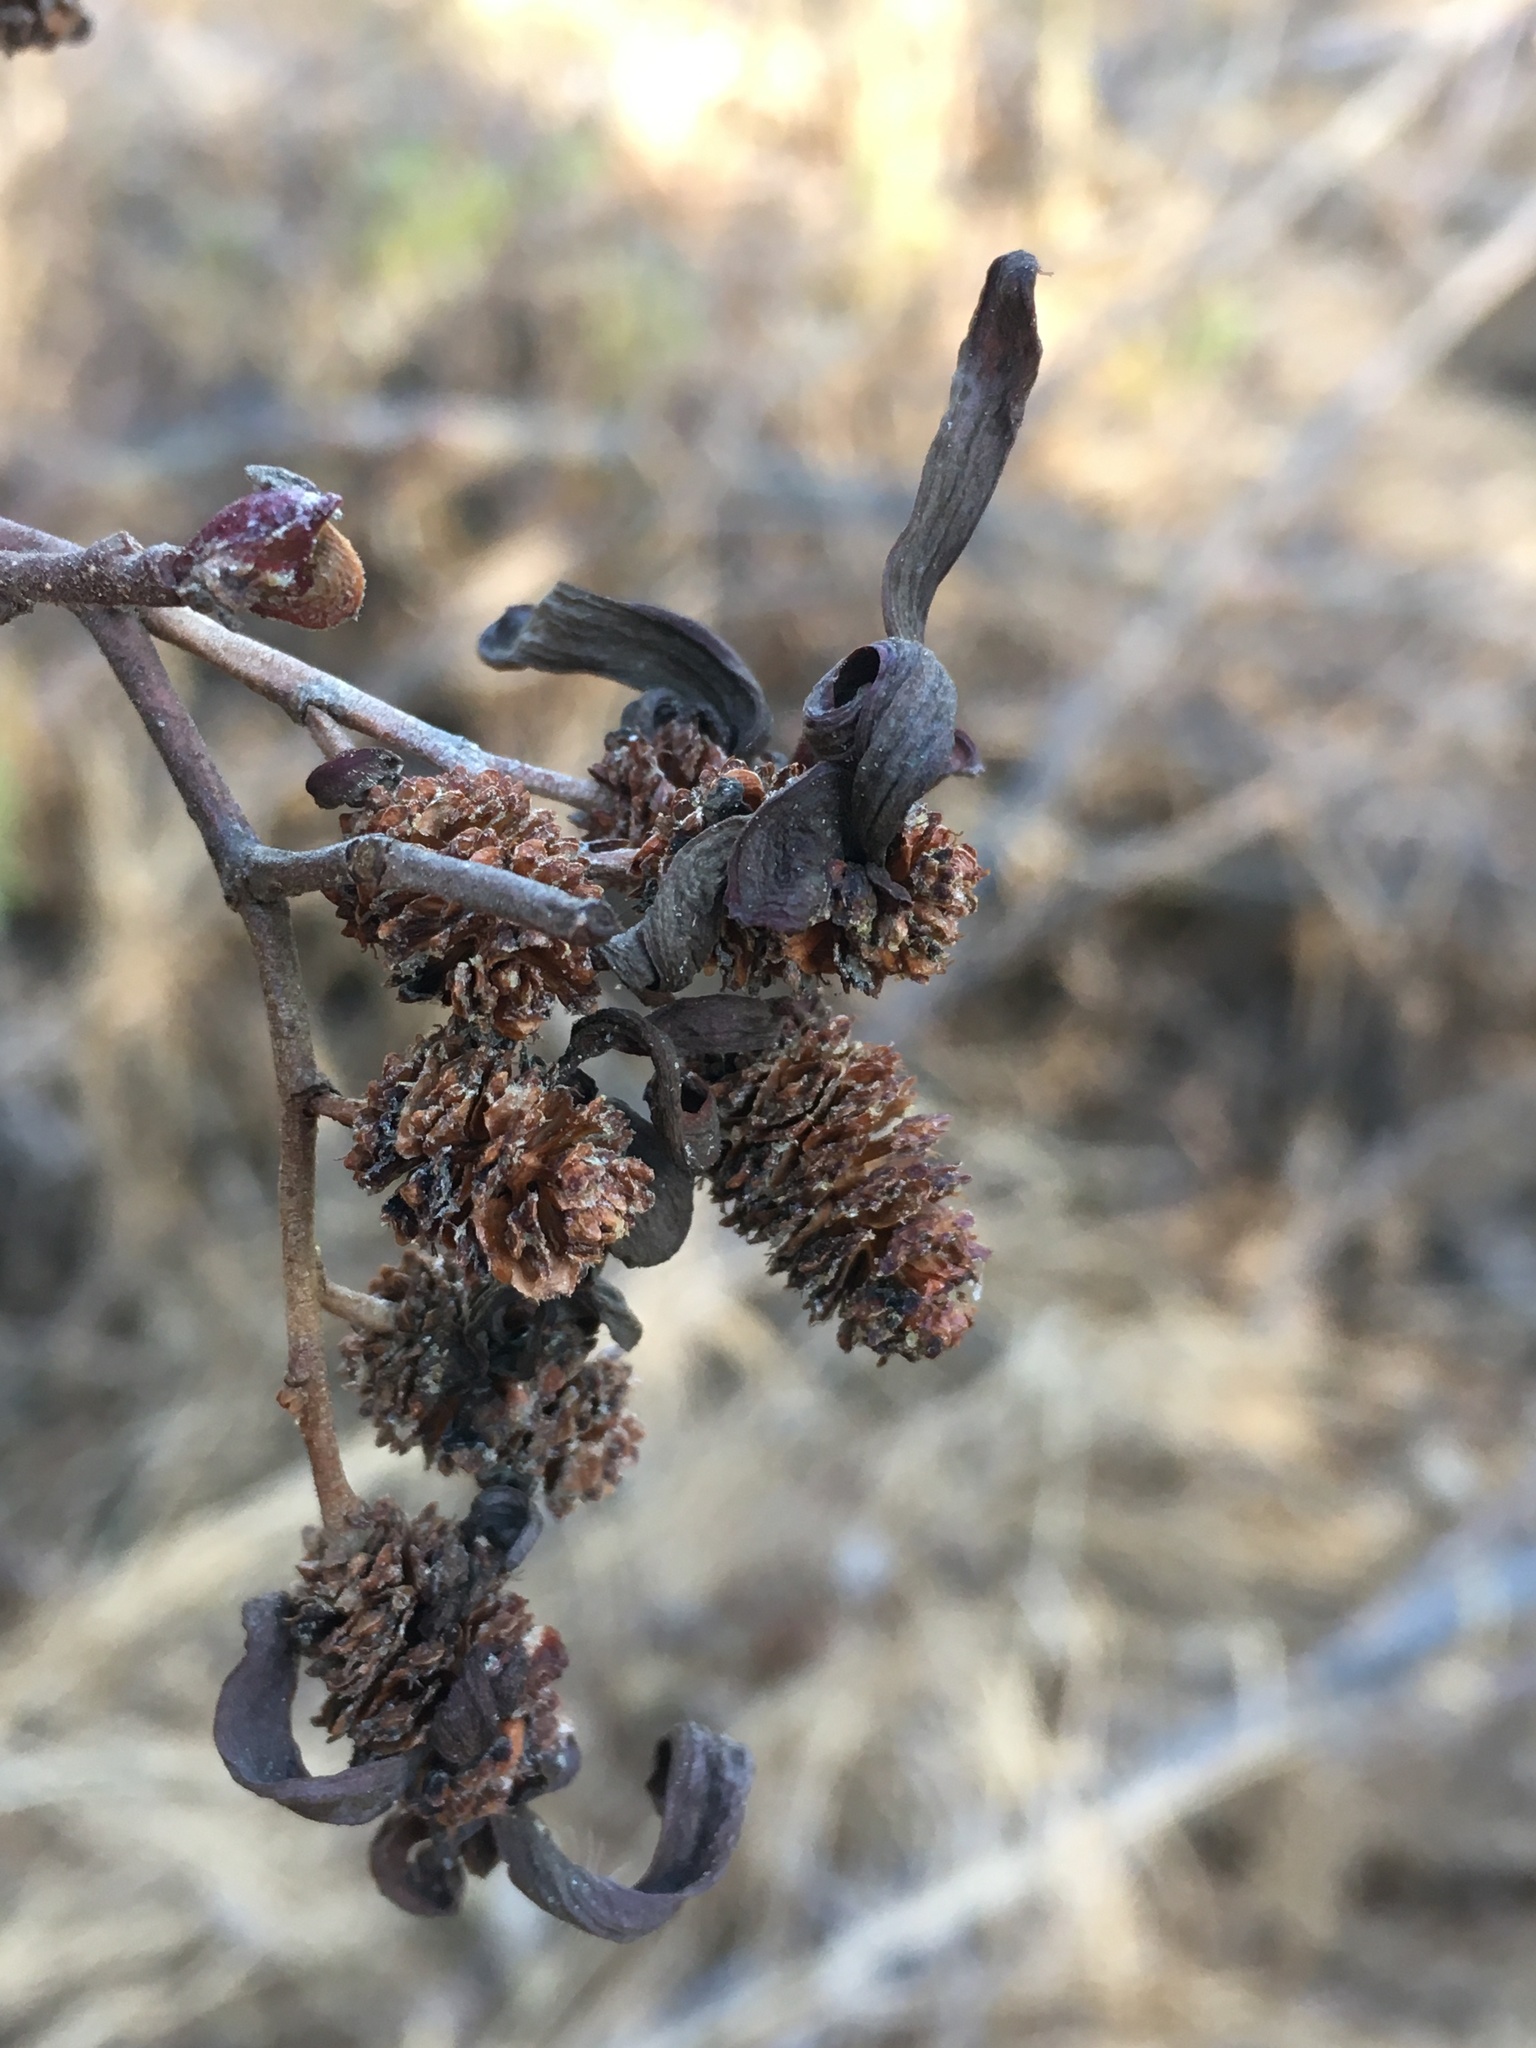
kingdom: Fungi
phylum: Ascomycota
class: Taphrinomycetes
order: Taphrinales
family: Taphrinaceae
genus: Taphrina
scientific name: Taphrina occidentalis
